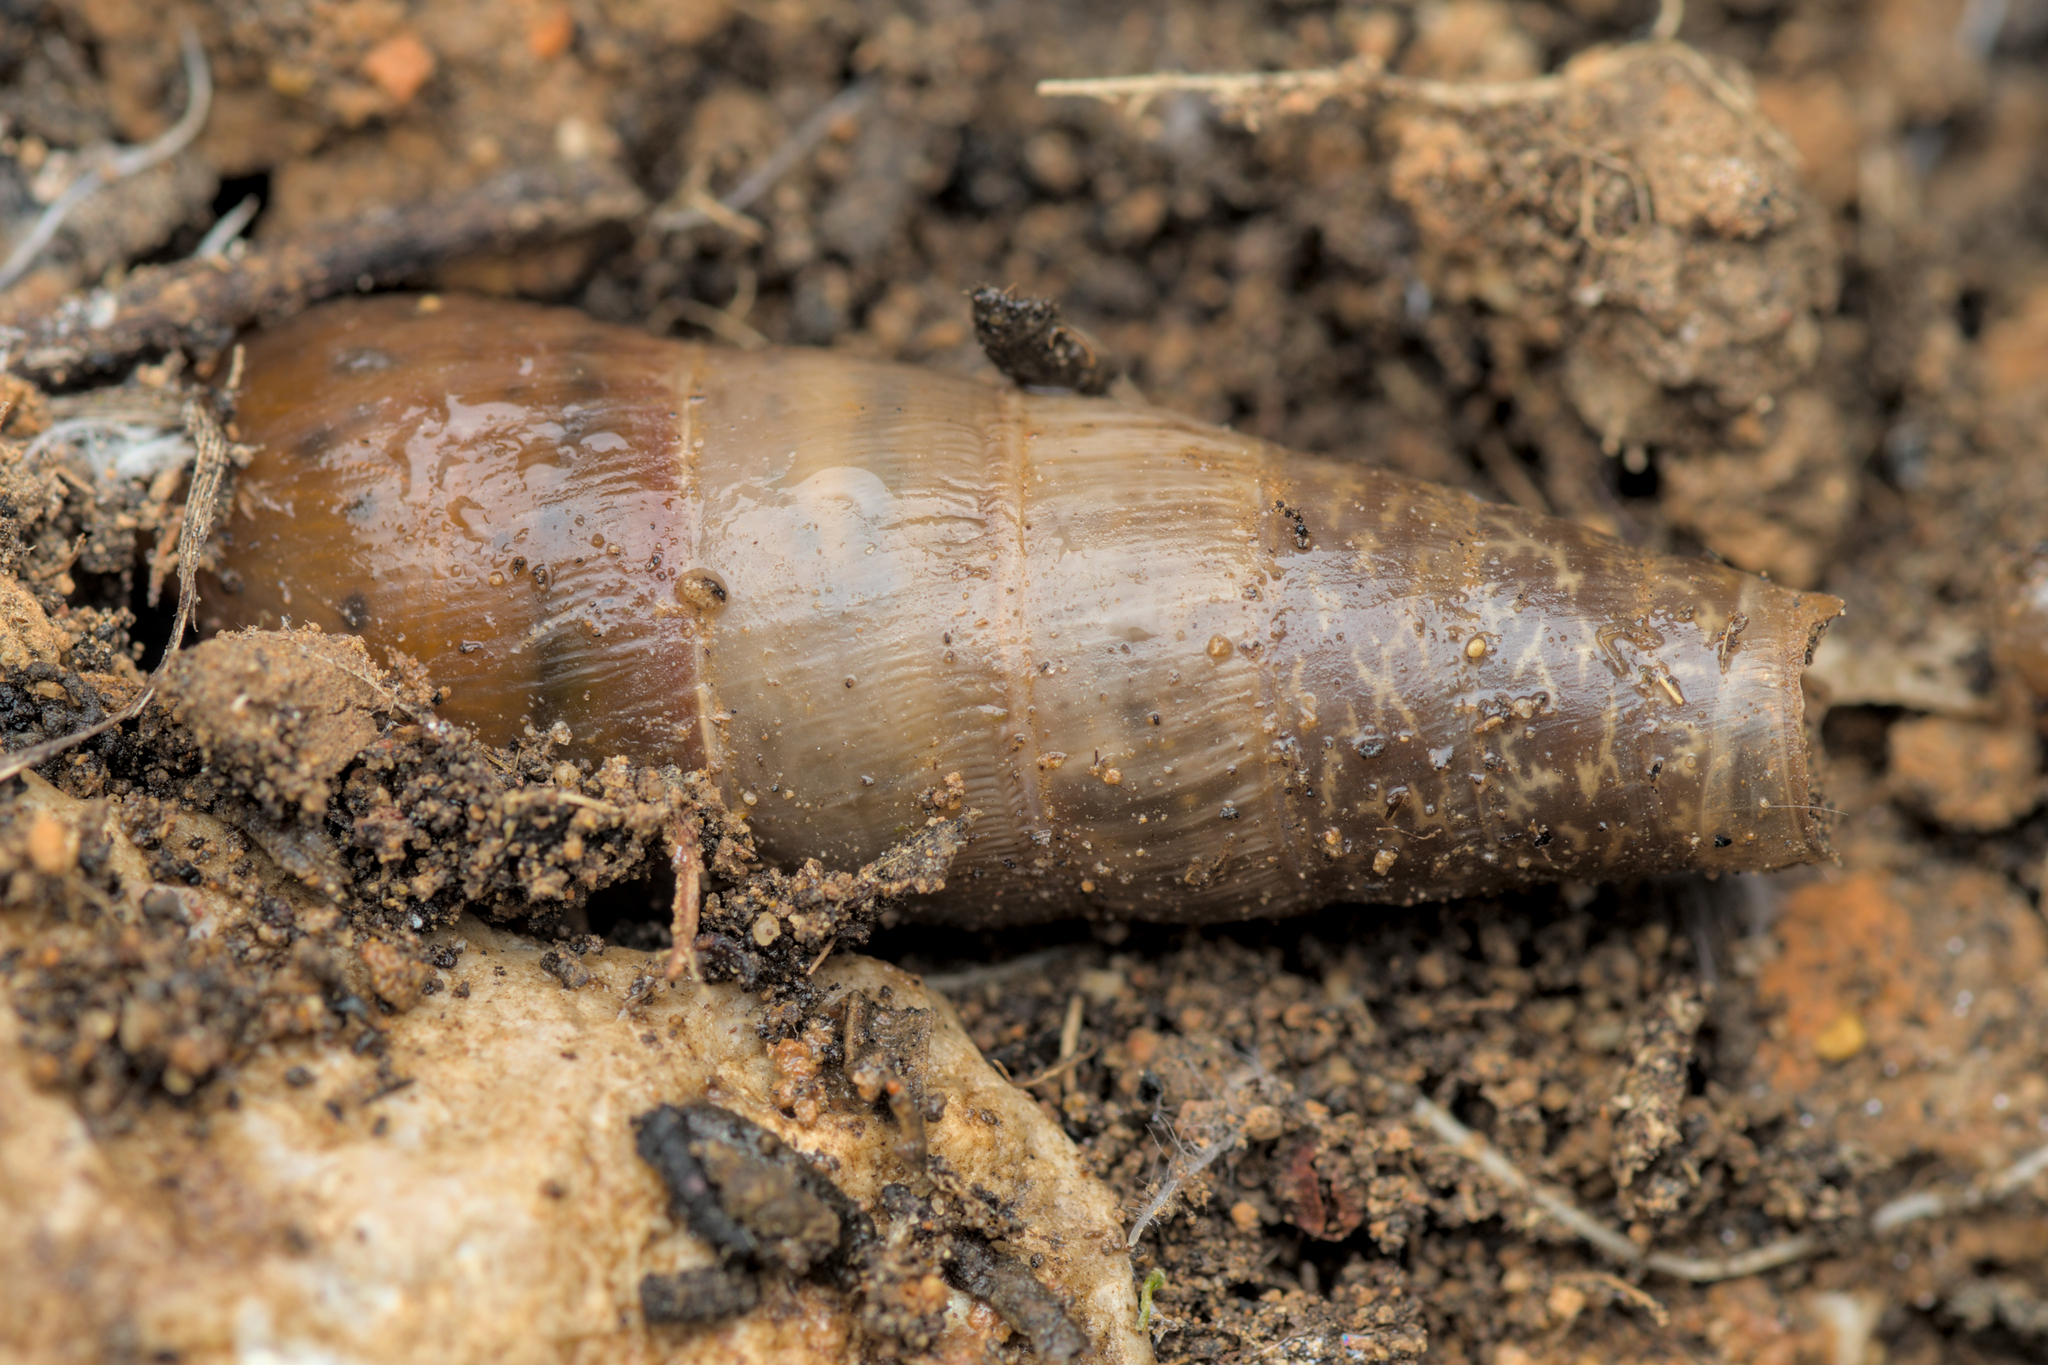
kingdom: Animalia
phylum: Mollusca
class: Gastropoda
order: Stylommatophora
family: Achatinidae
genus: Rumina
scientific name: Rumina decollata
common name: Decollate snail
